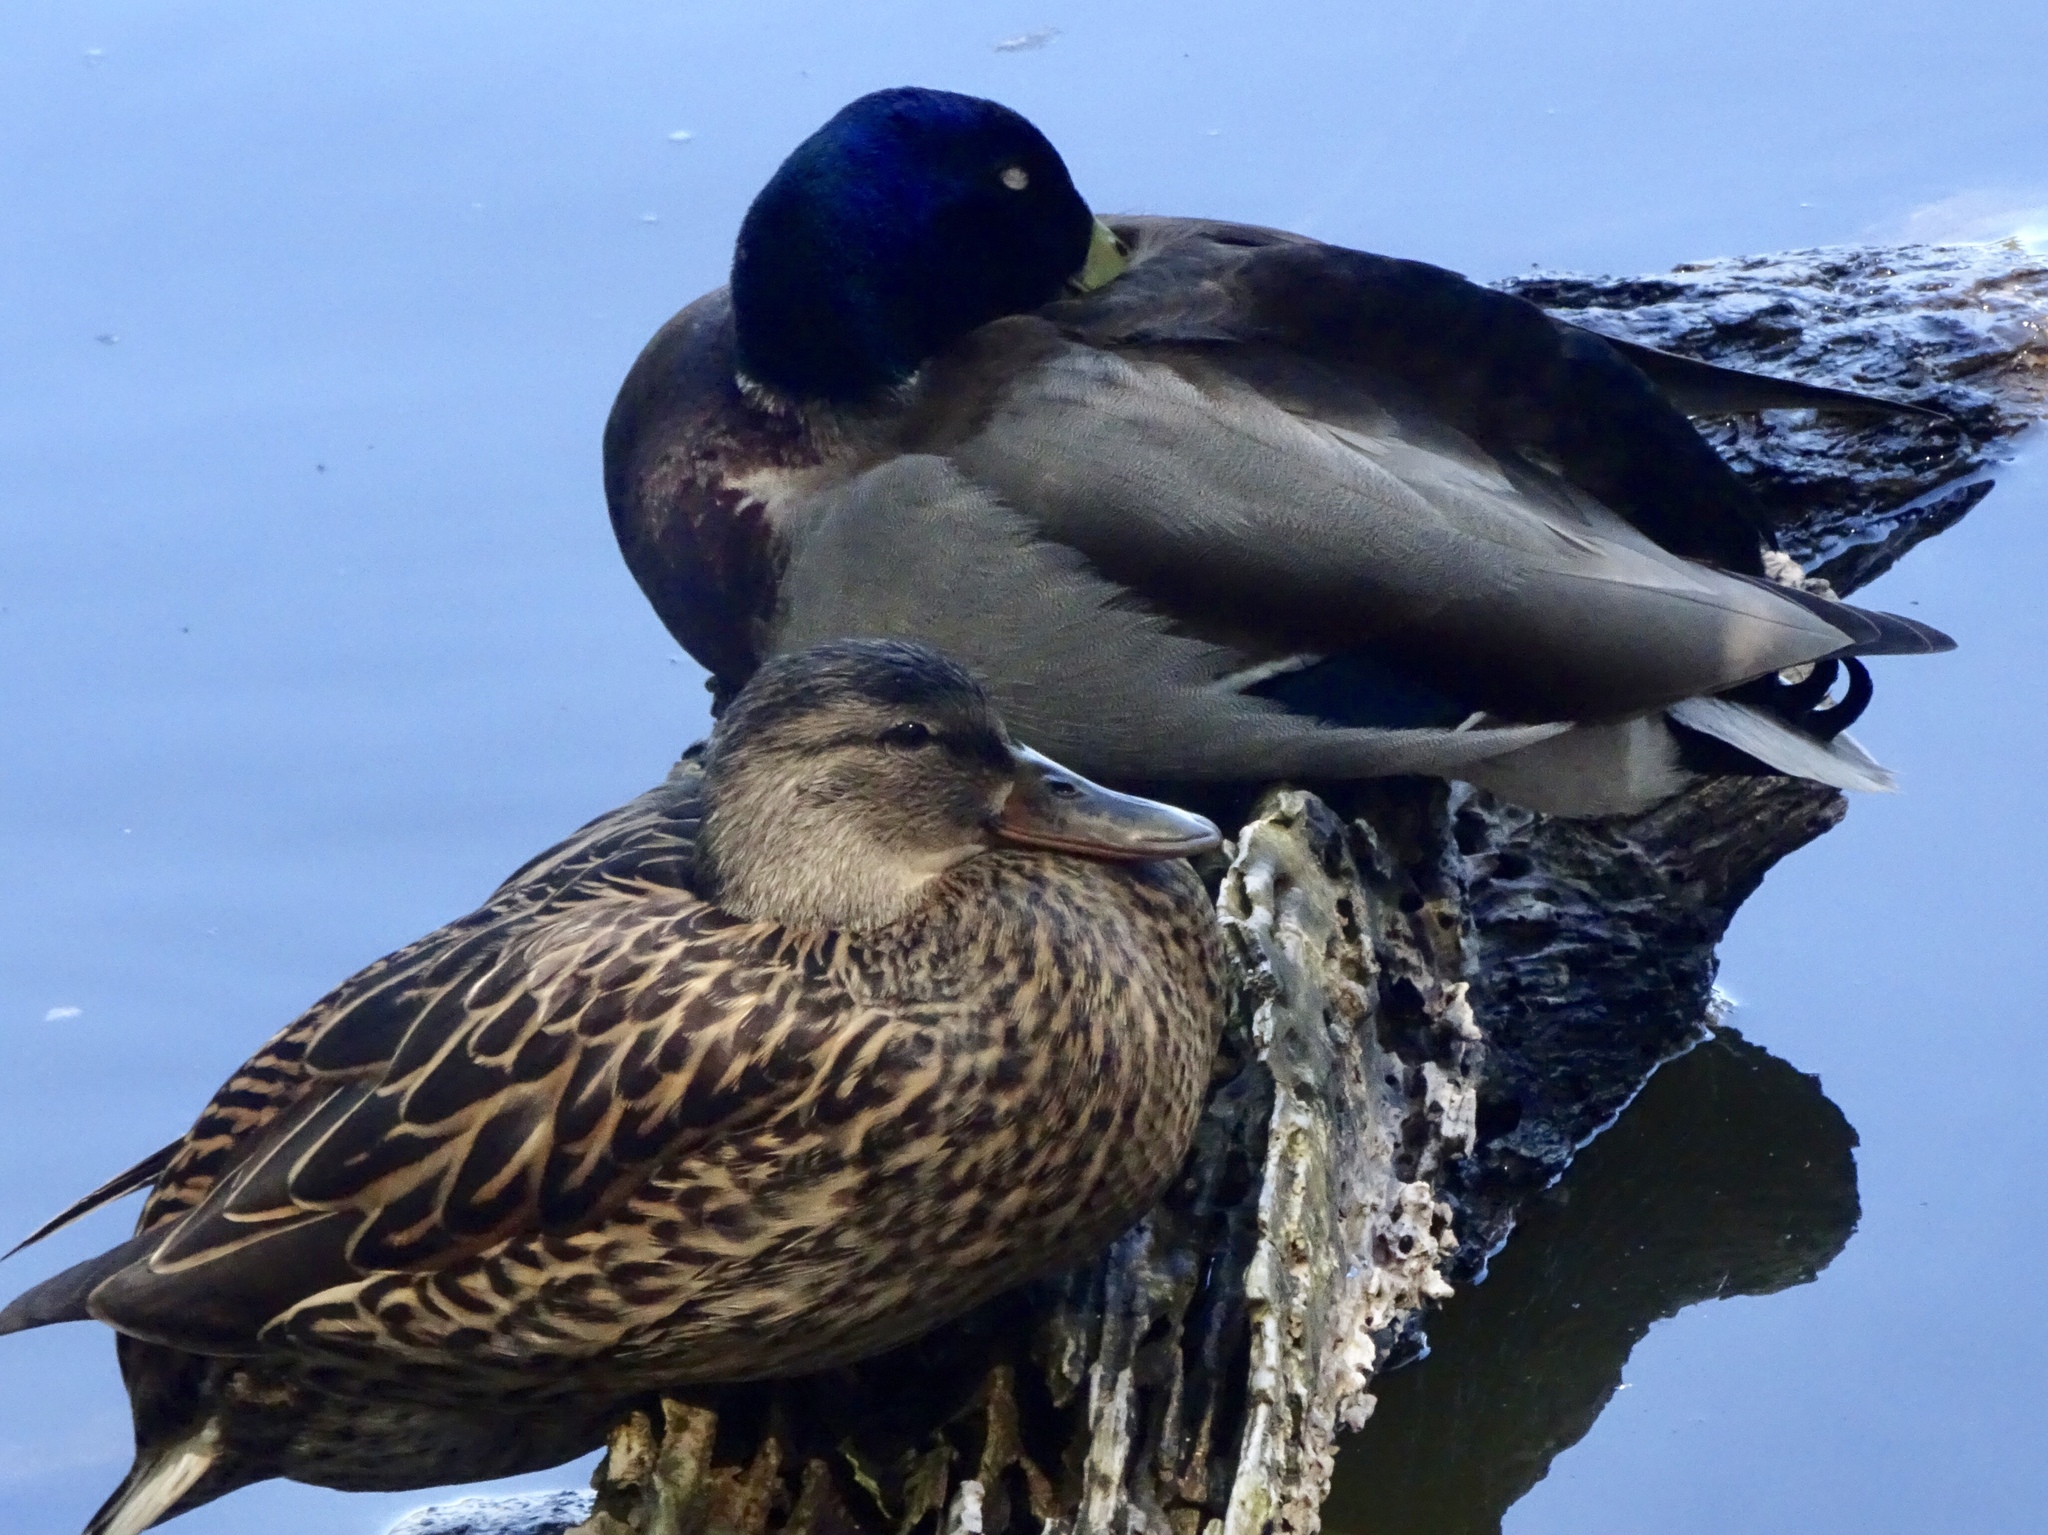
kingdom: Animalia
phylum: Chordata
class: Aves
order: Anseriformes
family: Anatidae
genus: Anas
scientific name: Anas platyrhynchos
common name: Mallard
